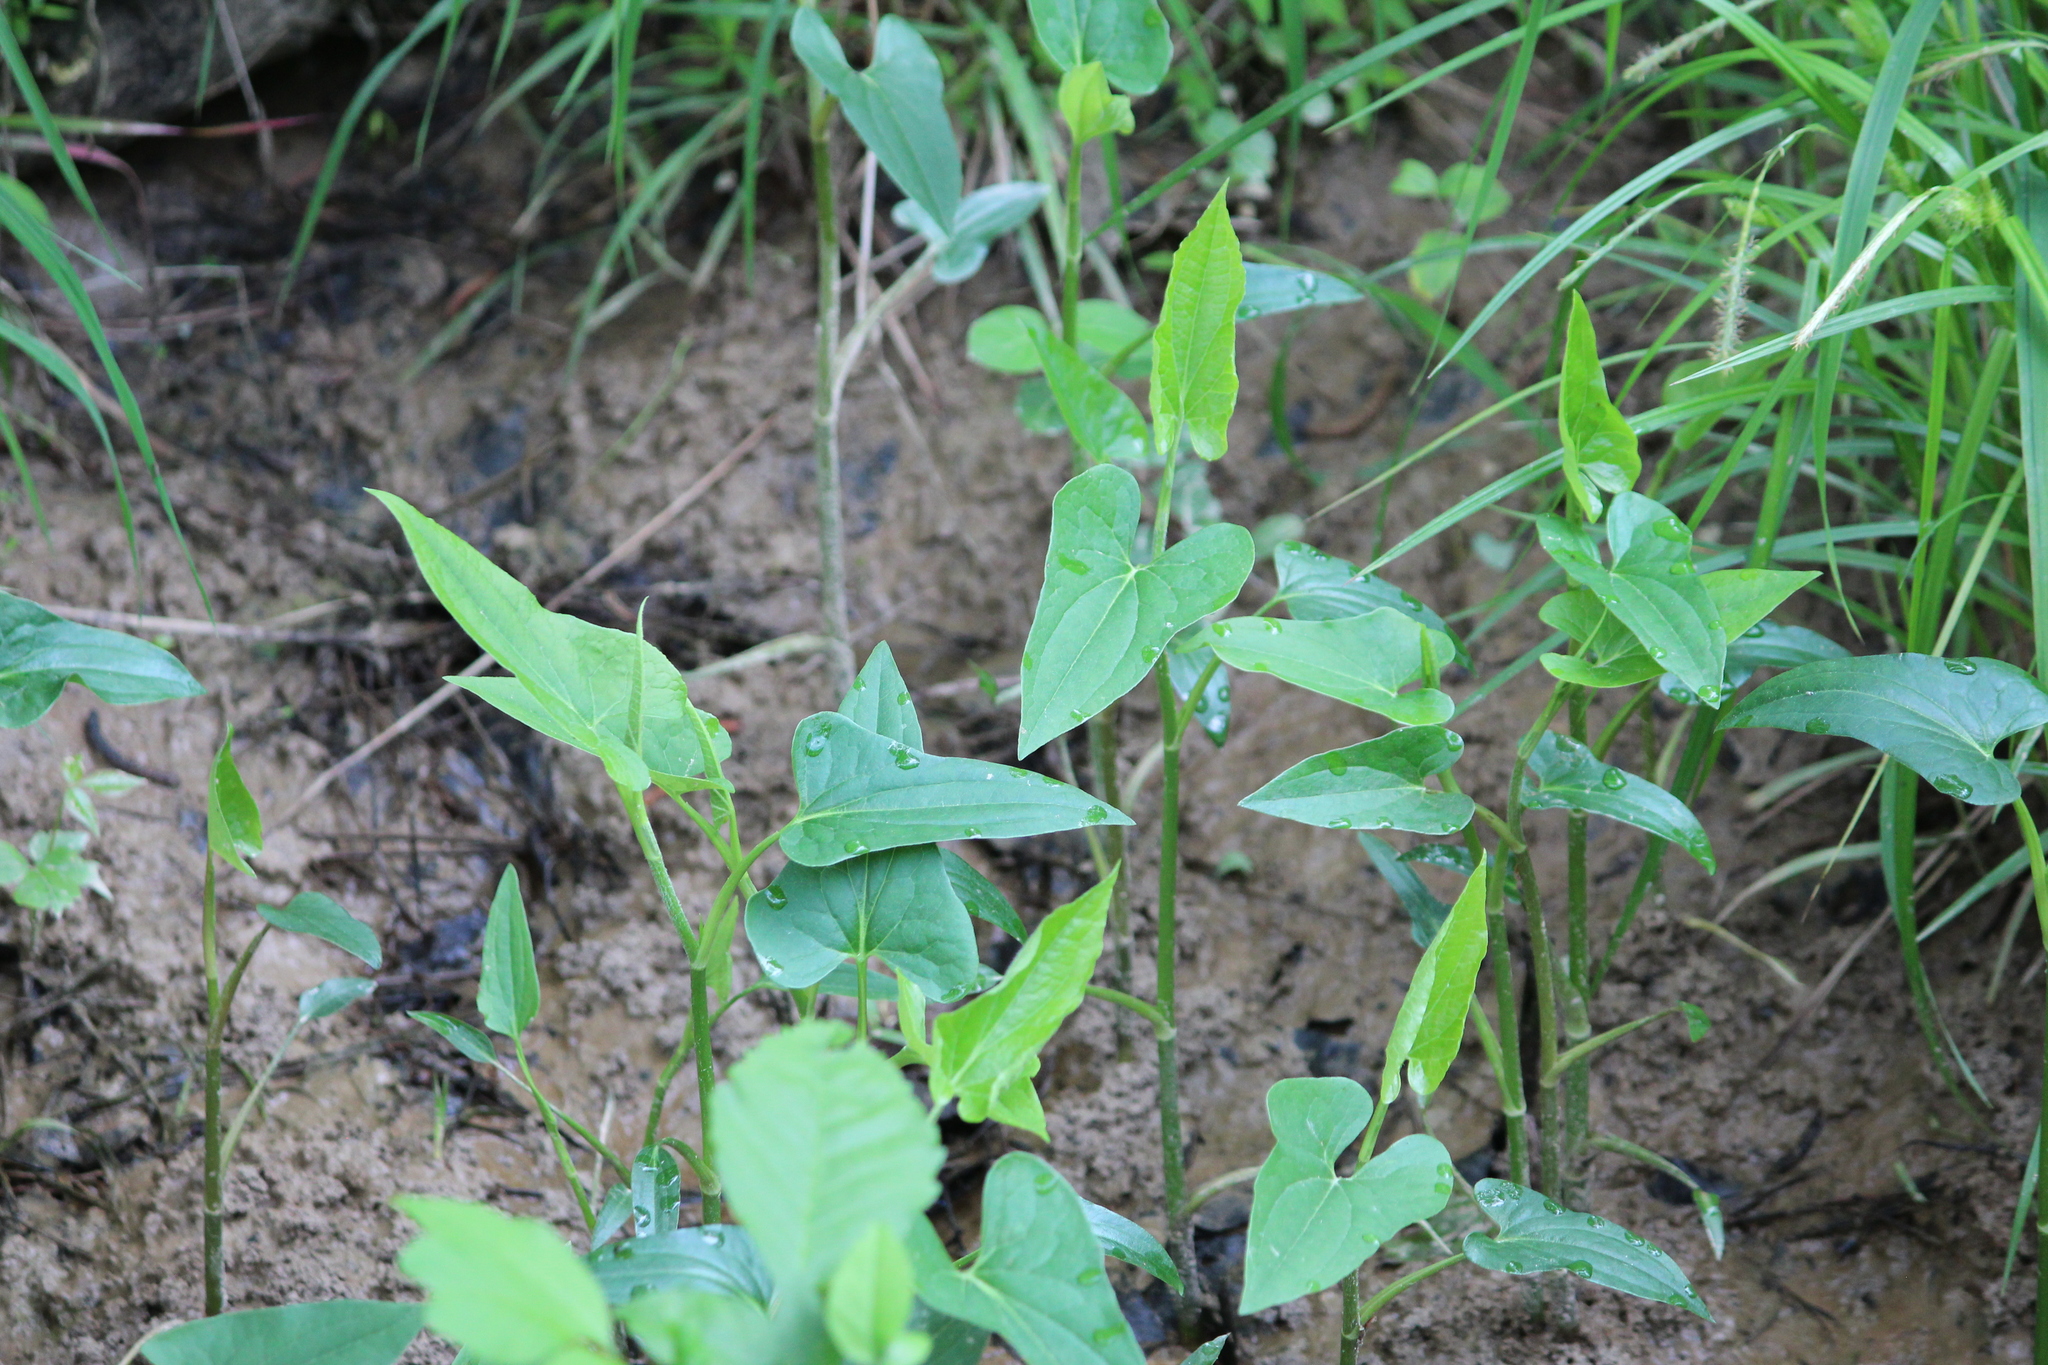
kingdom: Plantae
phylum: Tracheophyta
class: Magnoliopsida
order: Piperales
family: Saururaceae
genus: Saururus
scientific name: Saururus cernuus
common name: Lizard's-tail
